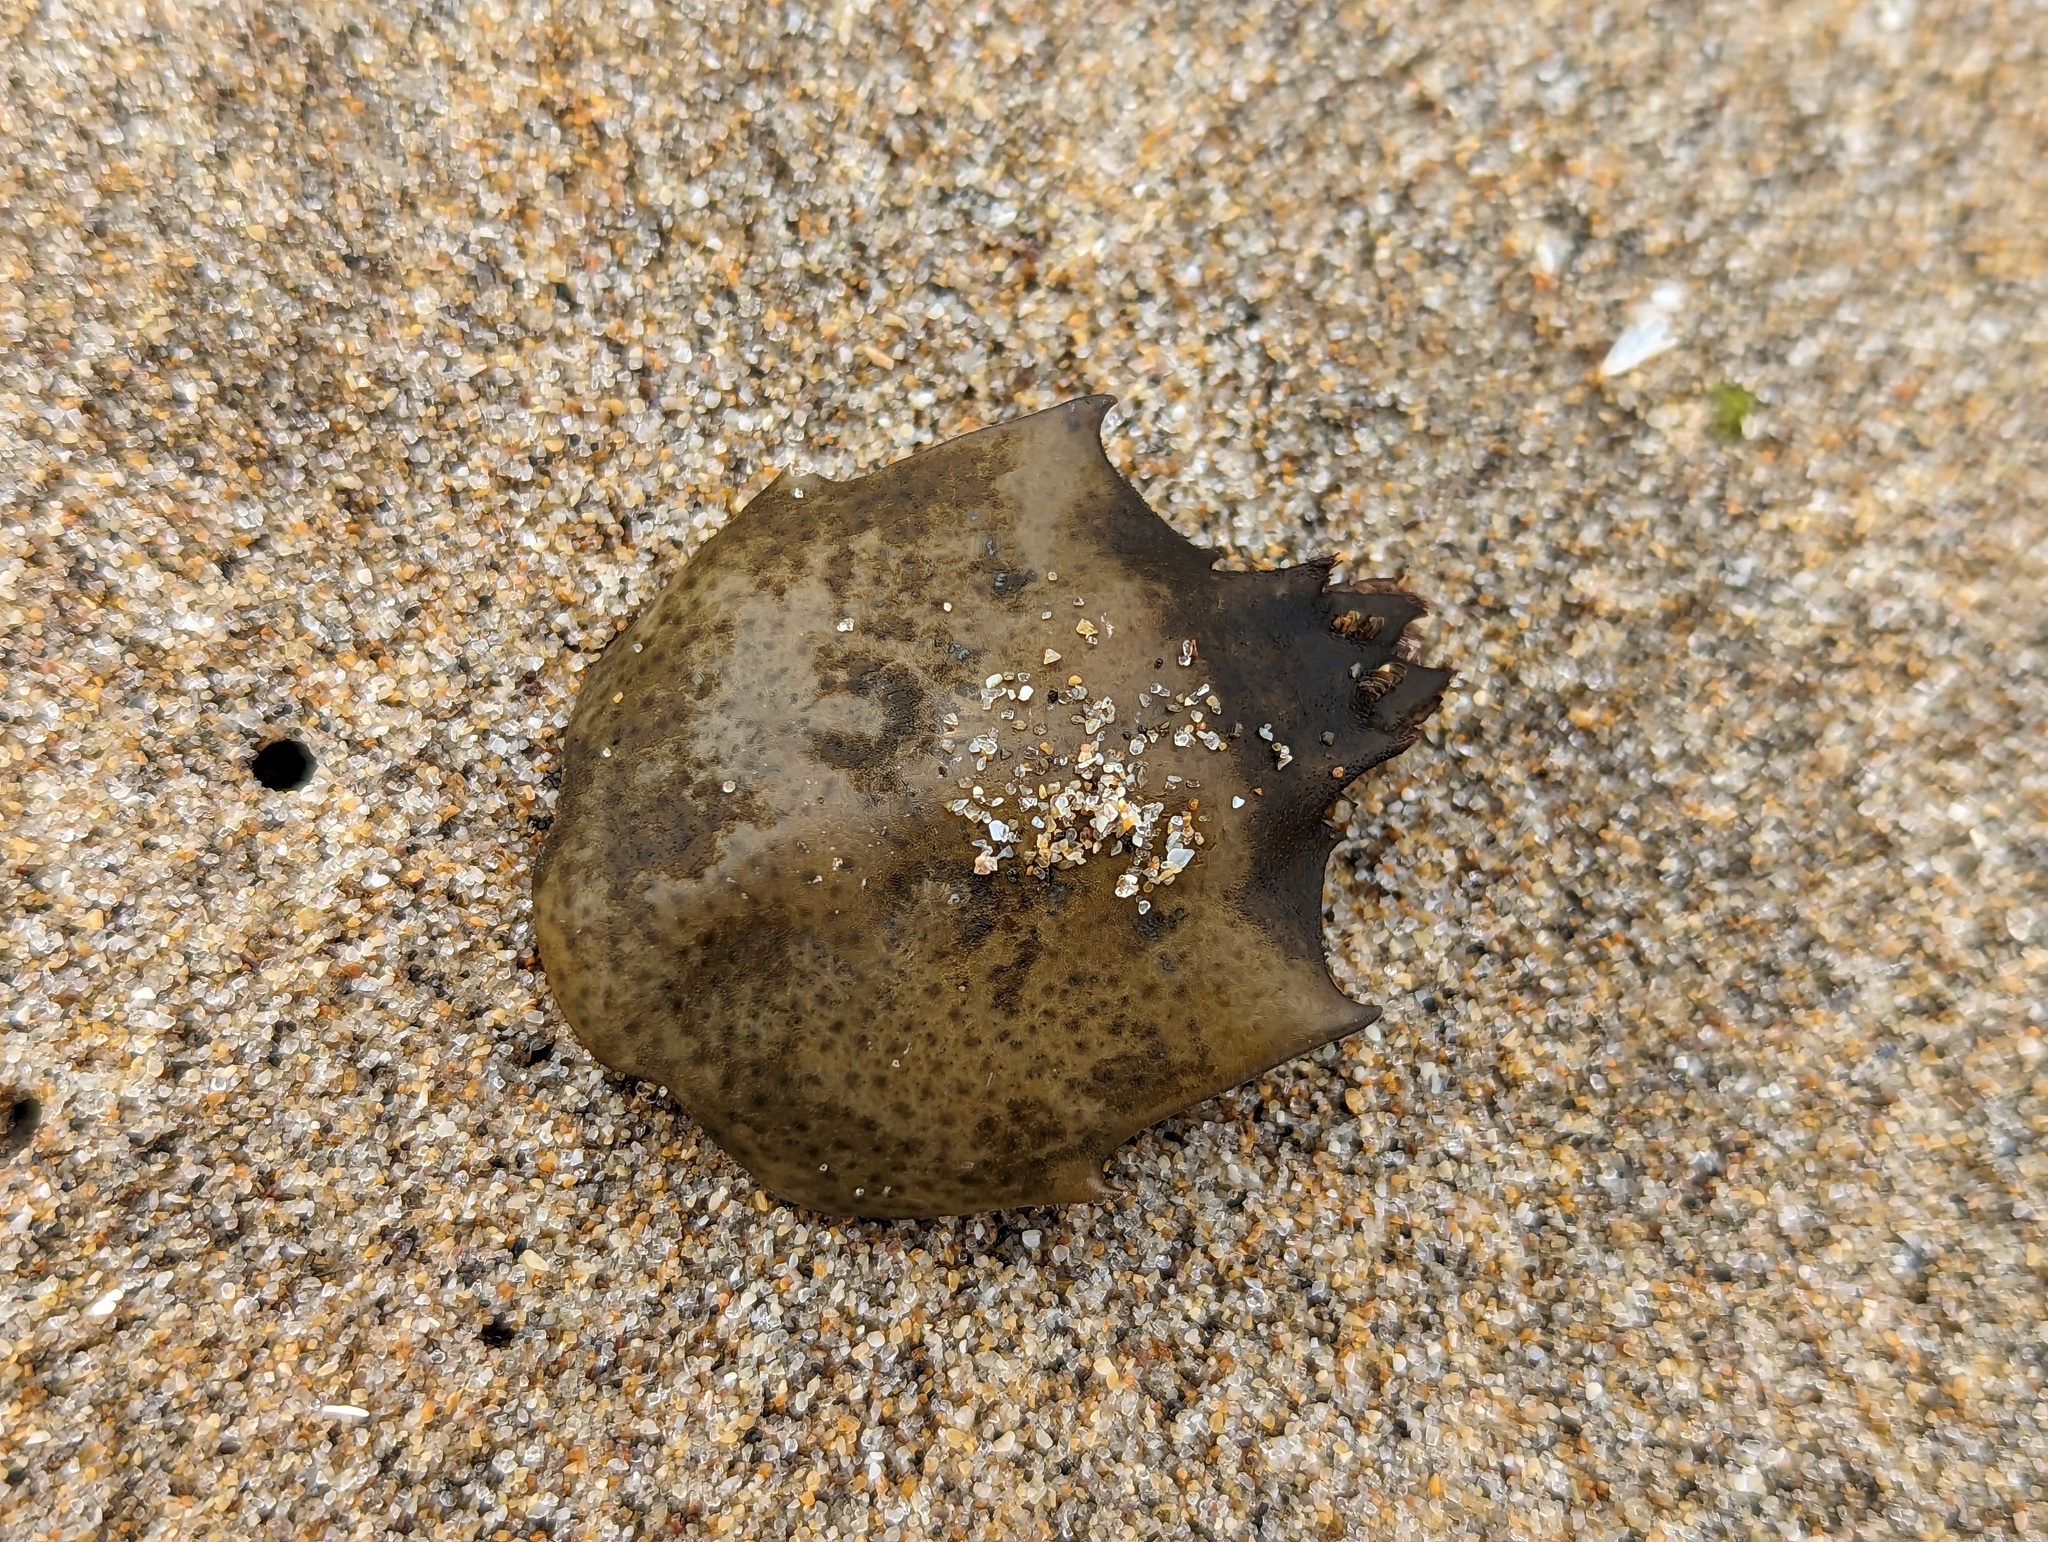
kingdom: Animalia
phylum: Arthropoda
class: Malacostraca
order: Decapoda
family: Epialtidae
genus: Pugettia
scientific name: Pugettia producta
